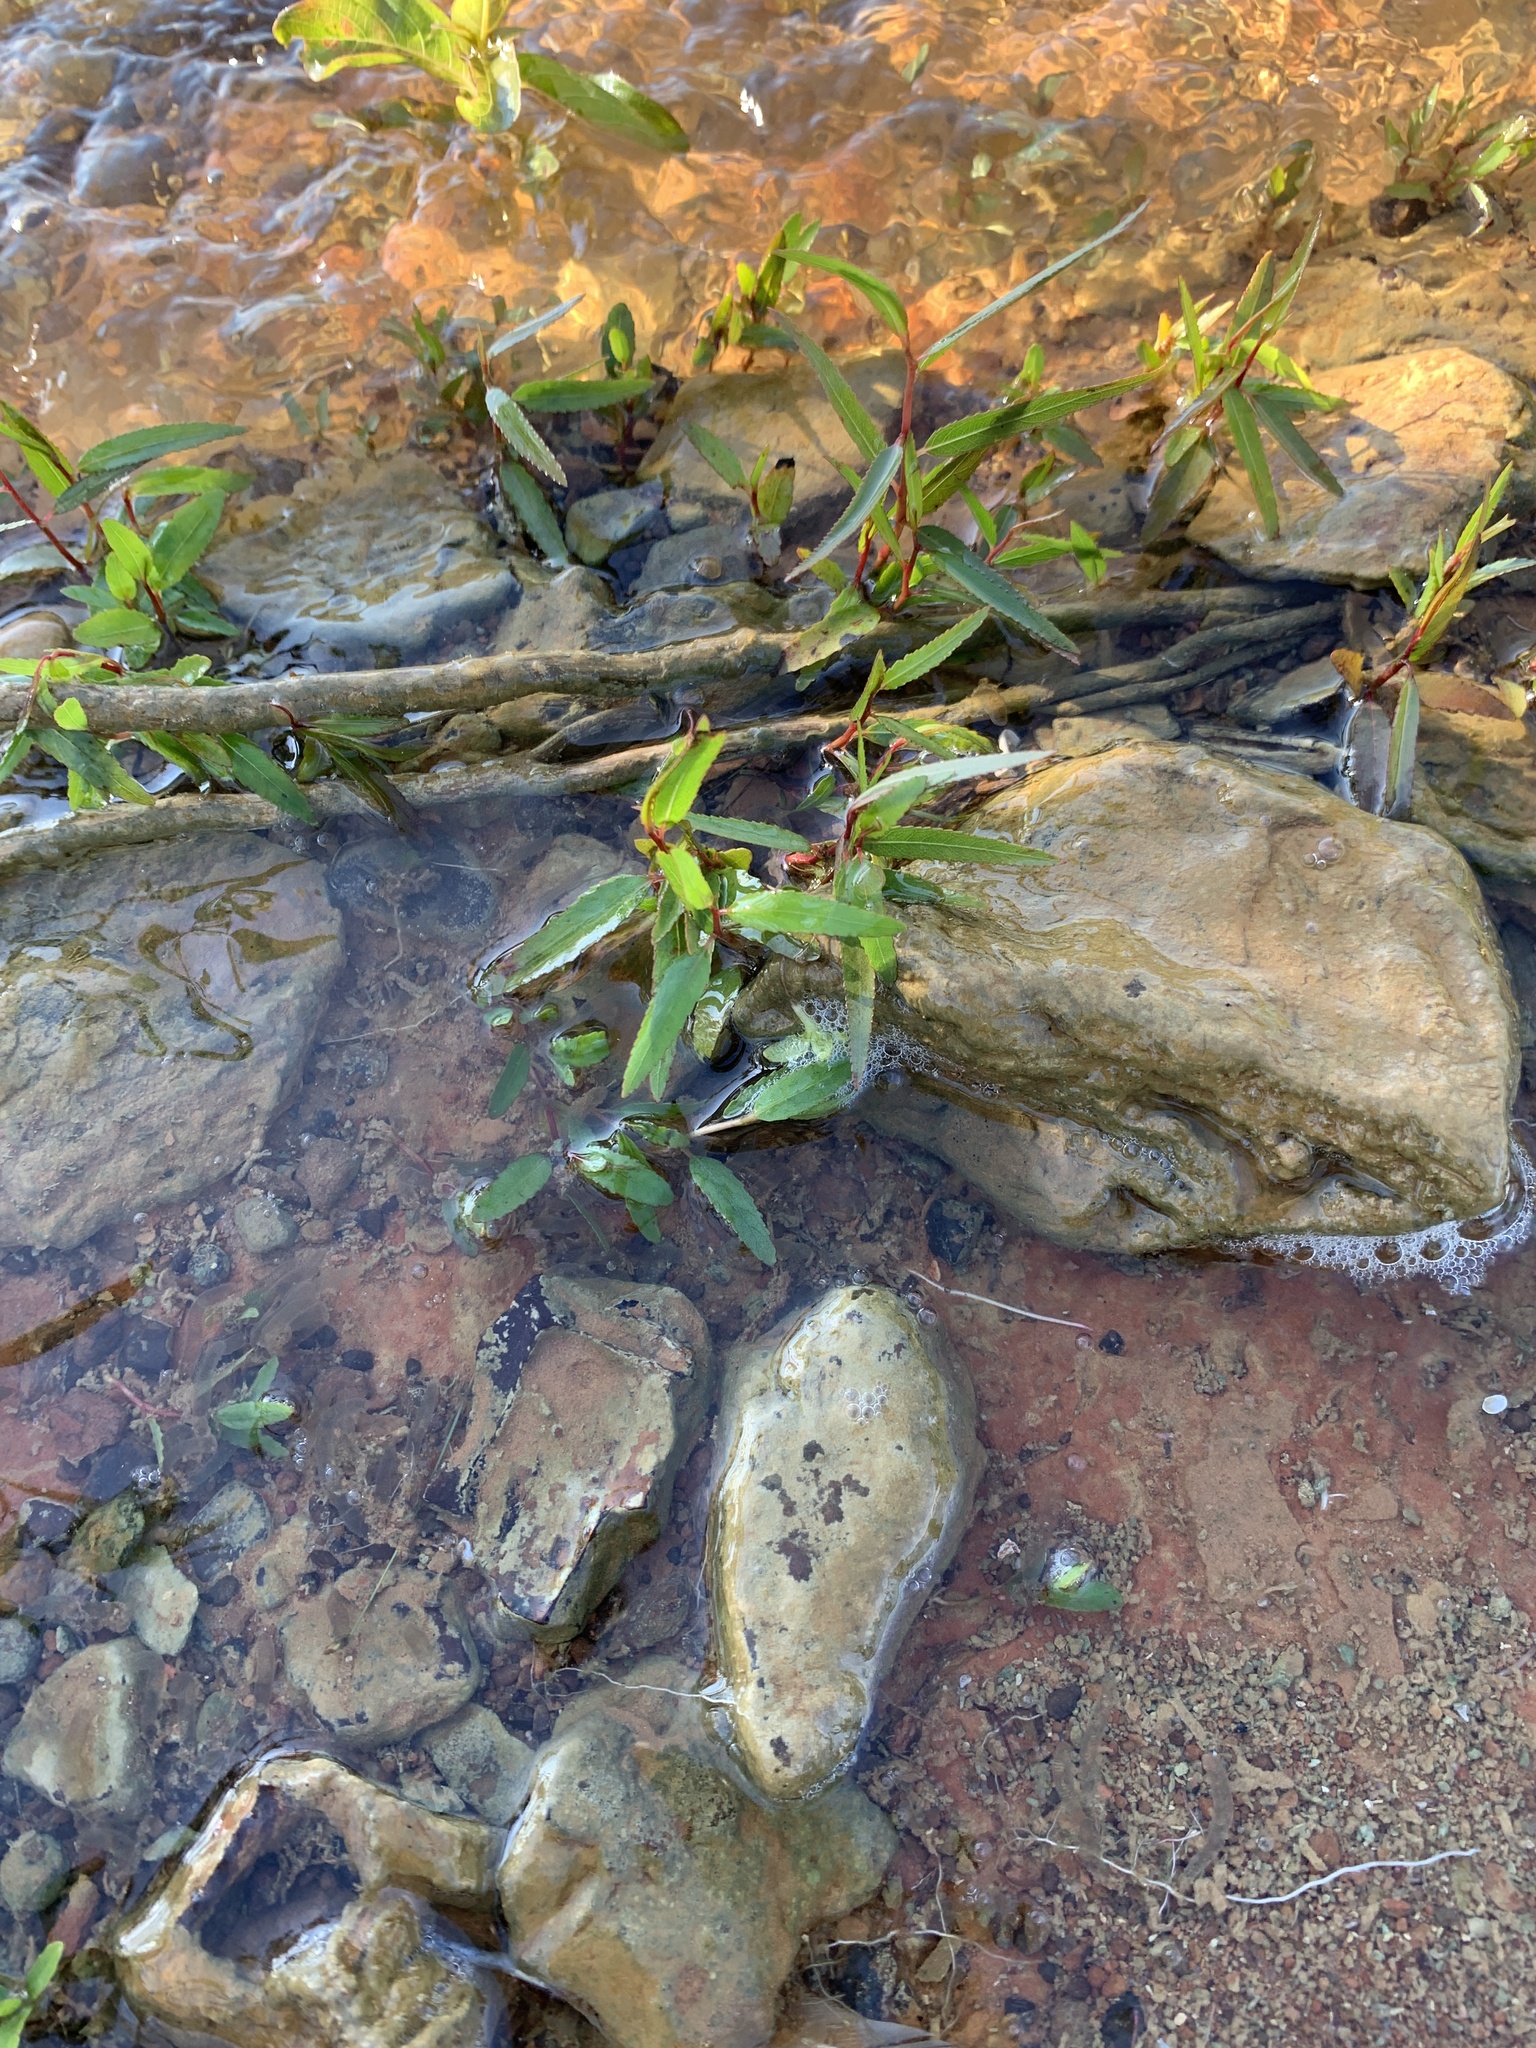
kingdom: Plantae
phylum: Tracheophyta
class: Magnoliopsida
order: Malpighiales
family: Salicaceae
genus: Salix
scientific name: Salix nigra
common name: Black willow
